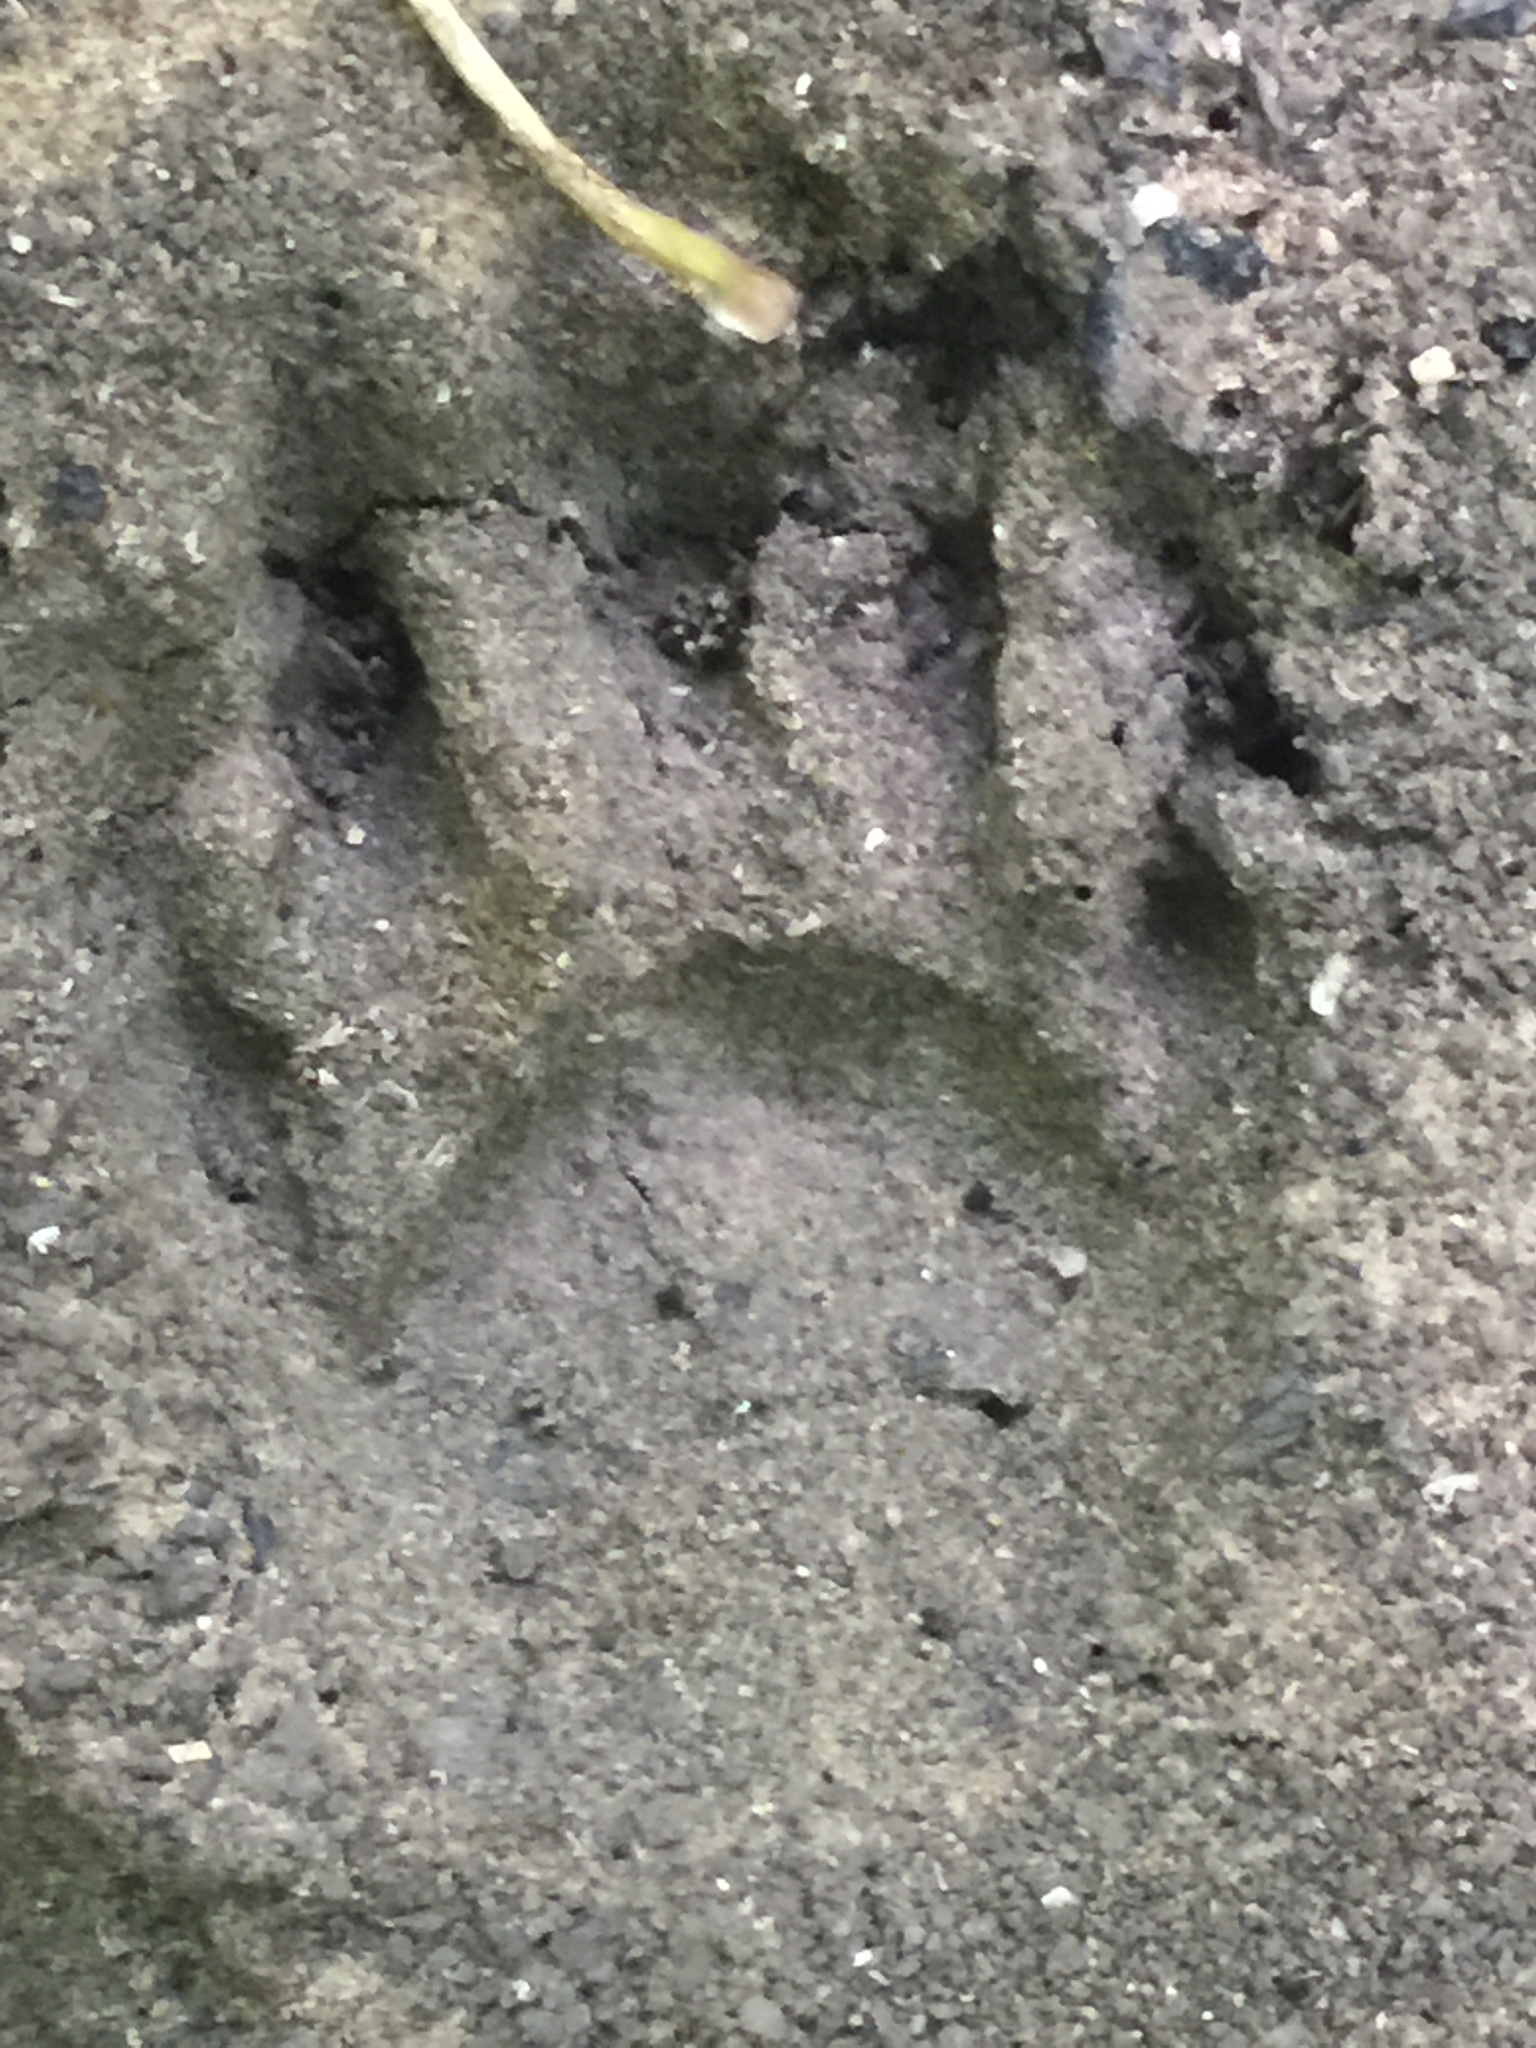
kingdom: Animalia
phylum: Chordata
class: Mammalia
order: Carnivora
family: Procyonidae
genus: Procyon
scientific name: Procyon lotor
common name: Raccoon
